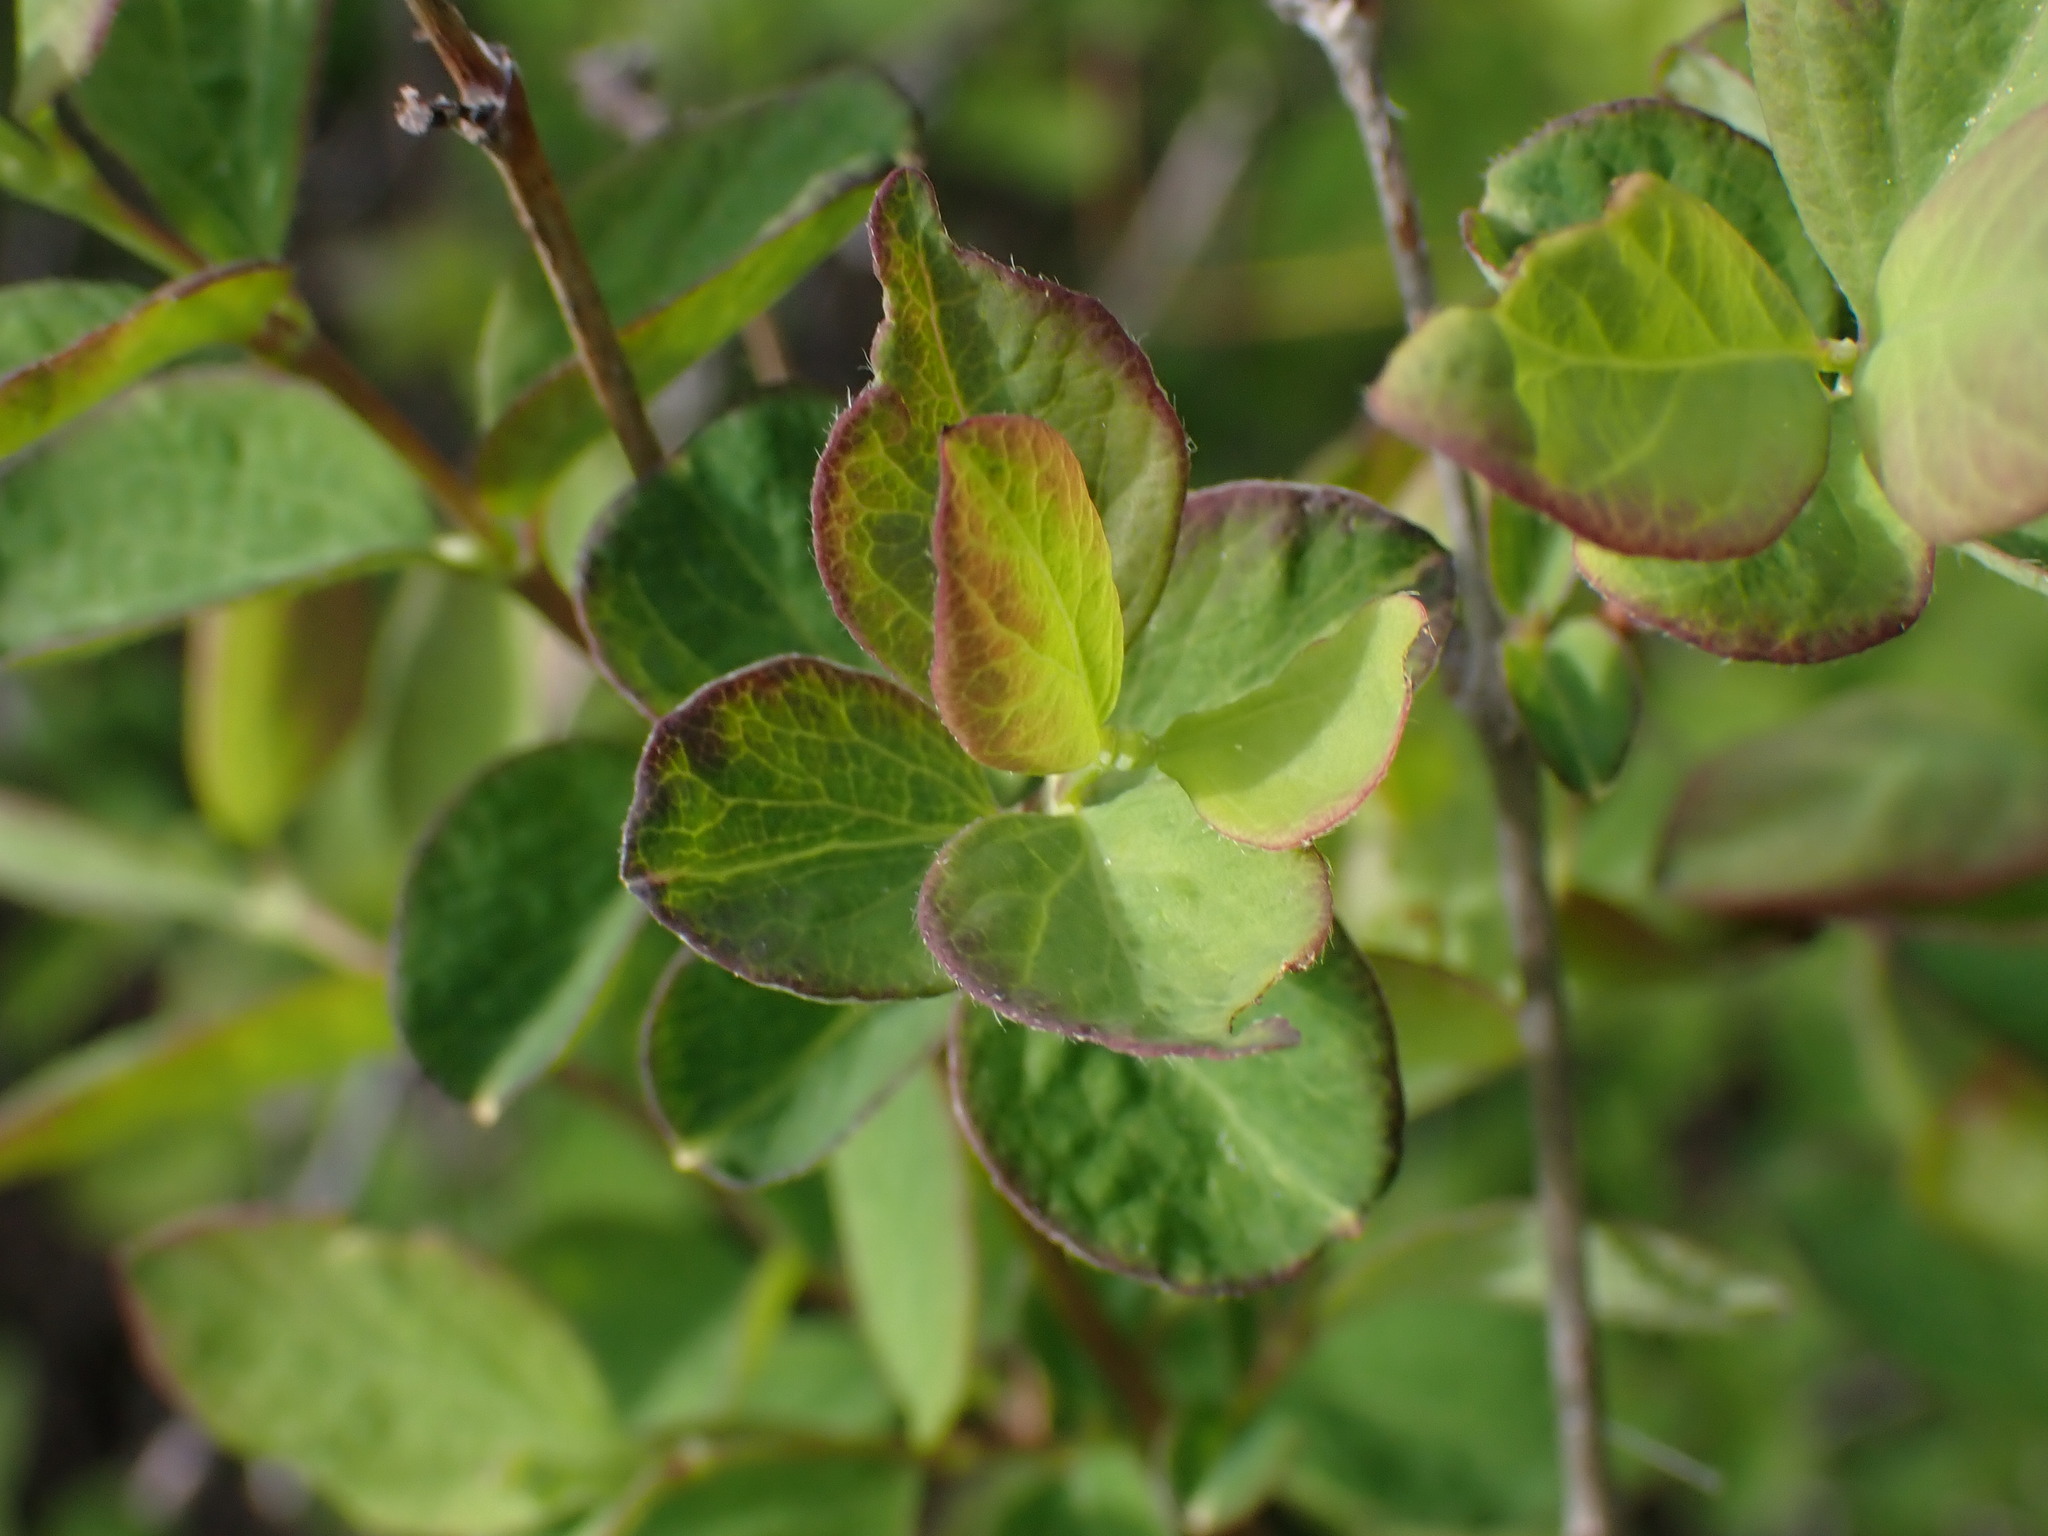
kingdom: Plantae
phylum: Tracheophyta
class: Magnoliopsida
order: Dipsacales
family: Caprifoliaceae
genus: Symphoricarpos
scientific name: Symphoricarpos
